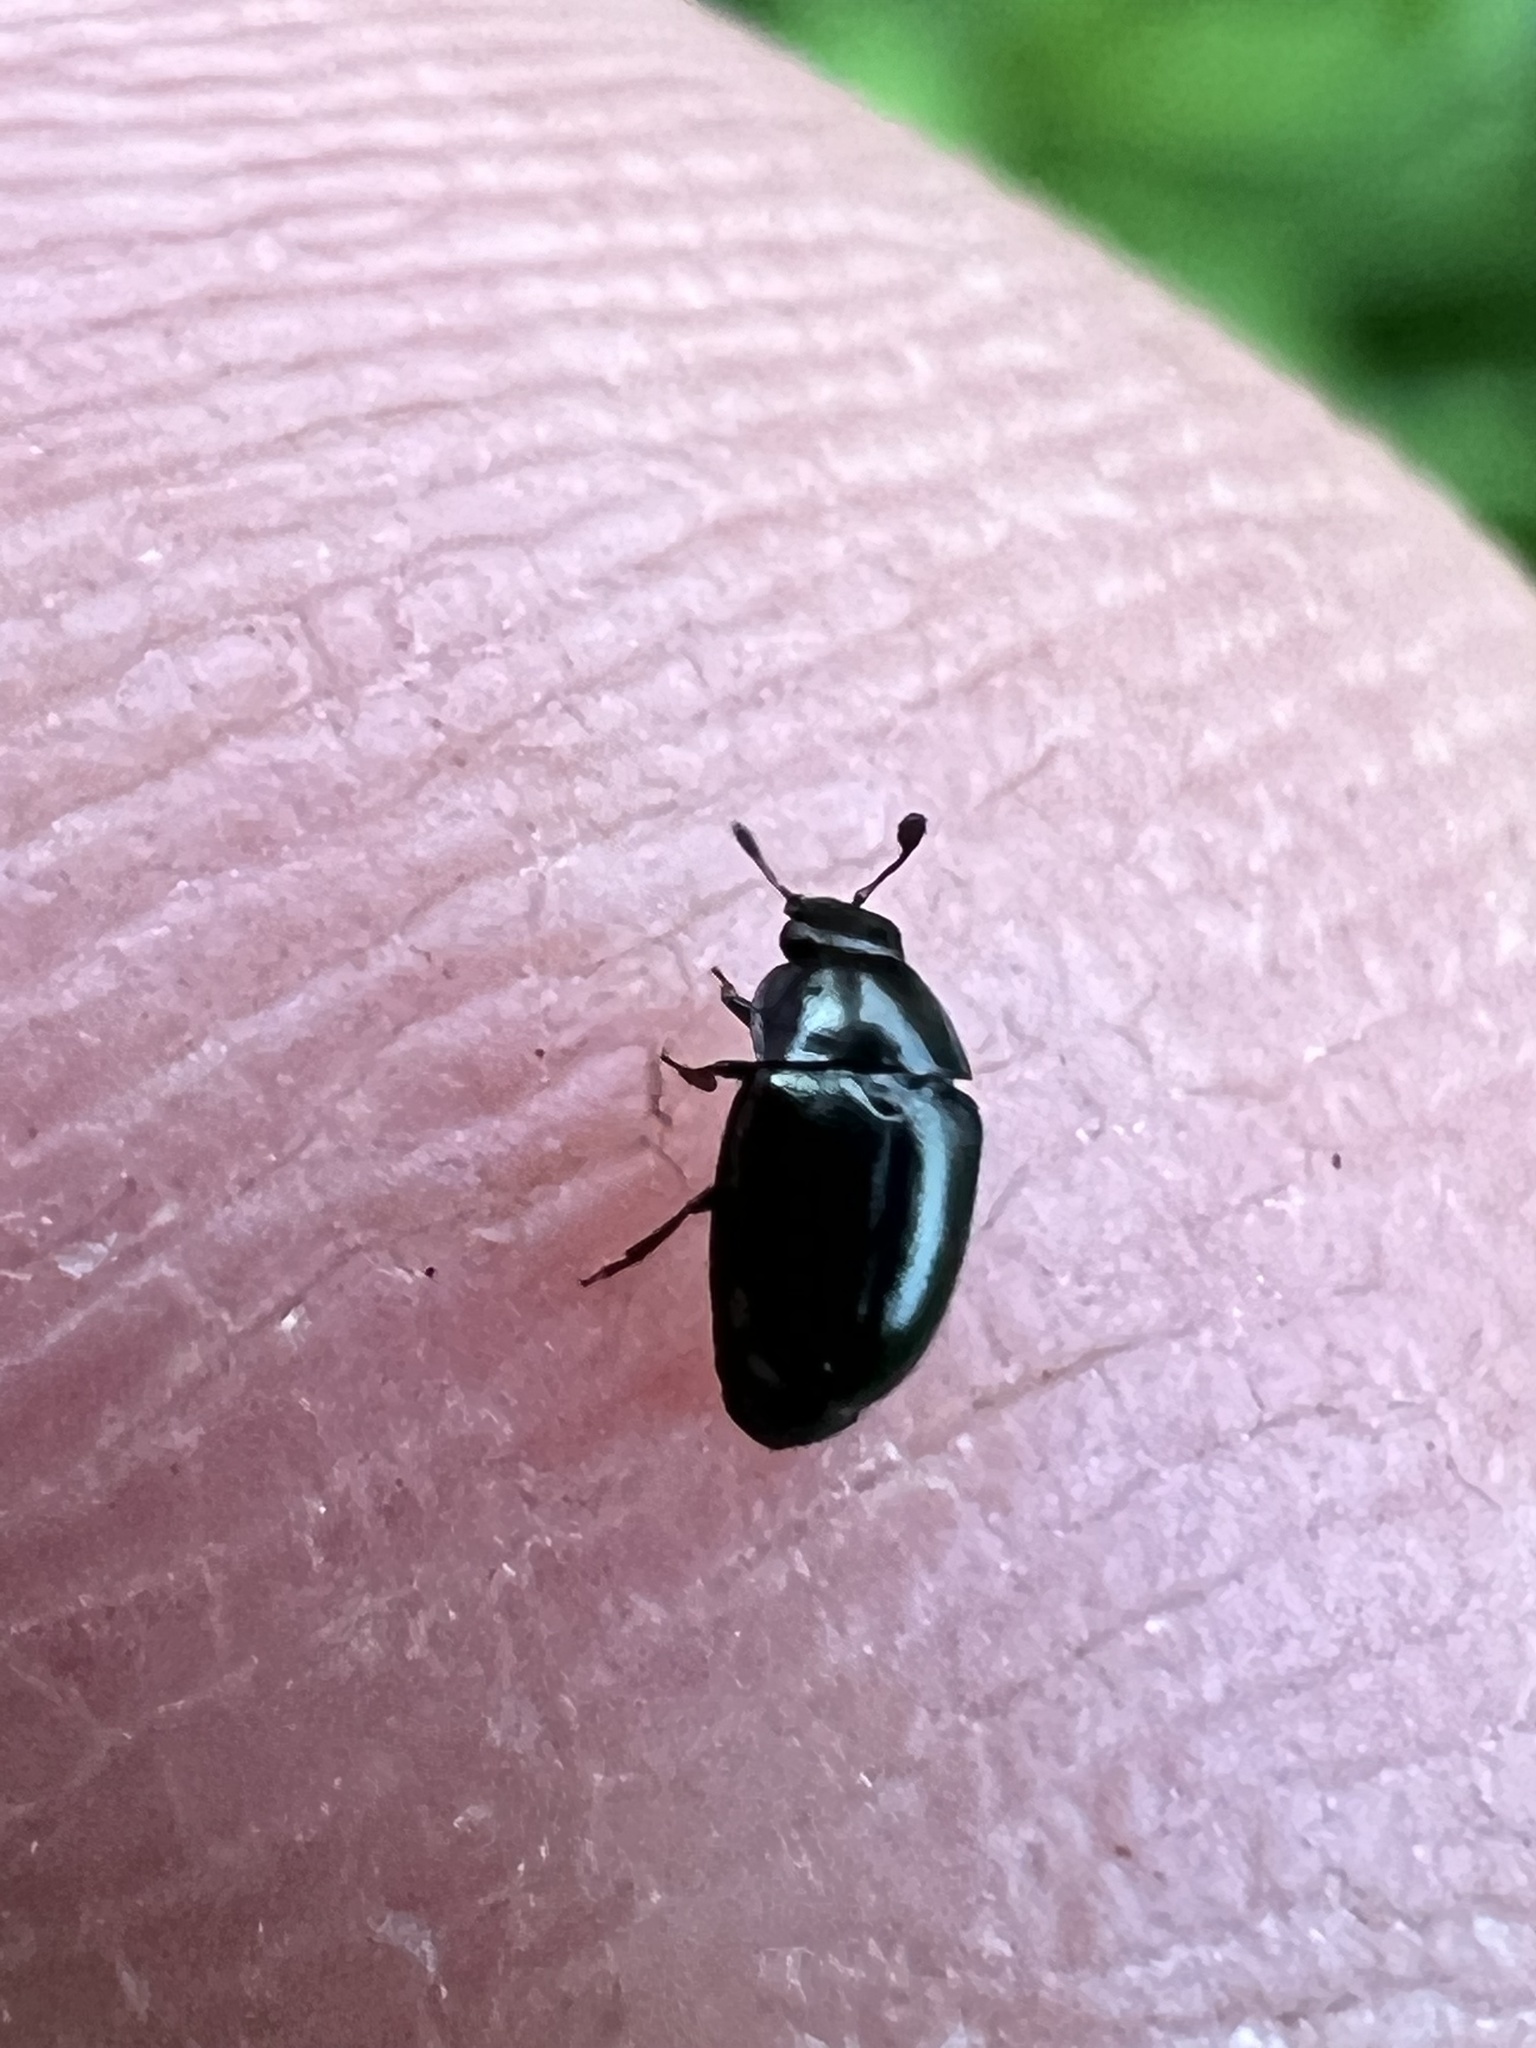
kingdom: Animalia
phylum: Arthropoda
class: Insecta
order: Coleoptera
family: Nitidulidae
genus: Brassicogethes
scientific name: Brassicogethes aeneus
